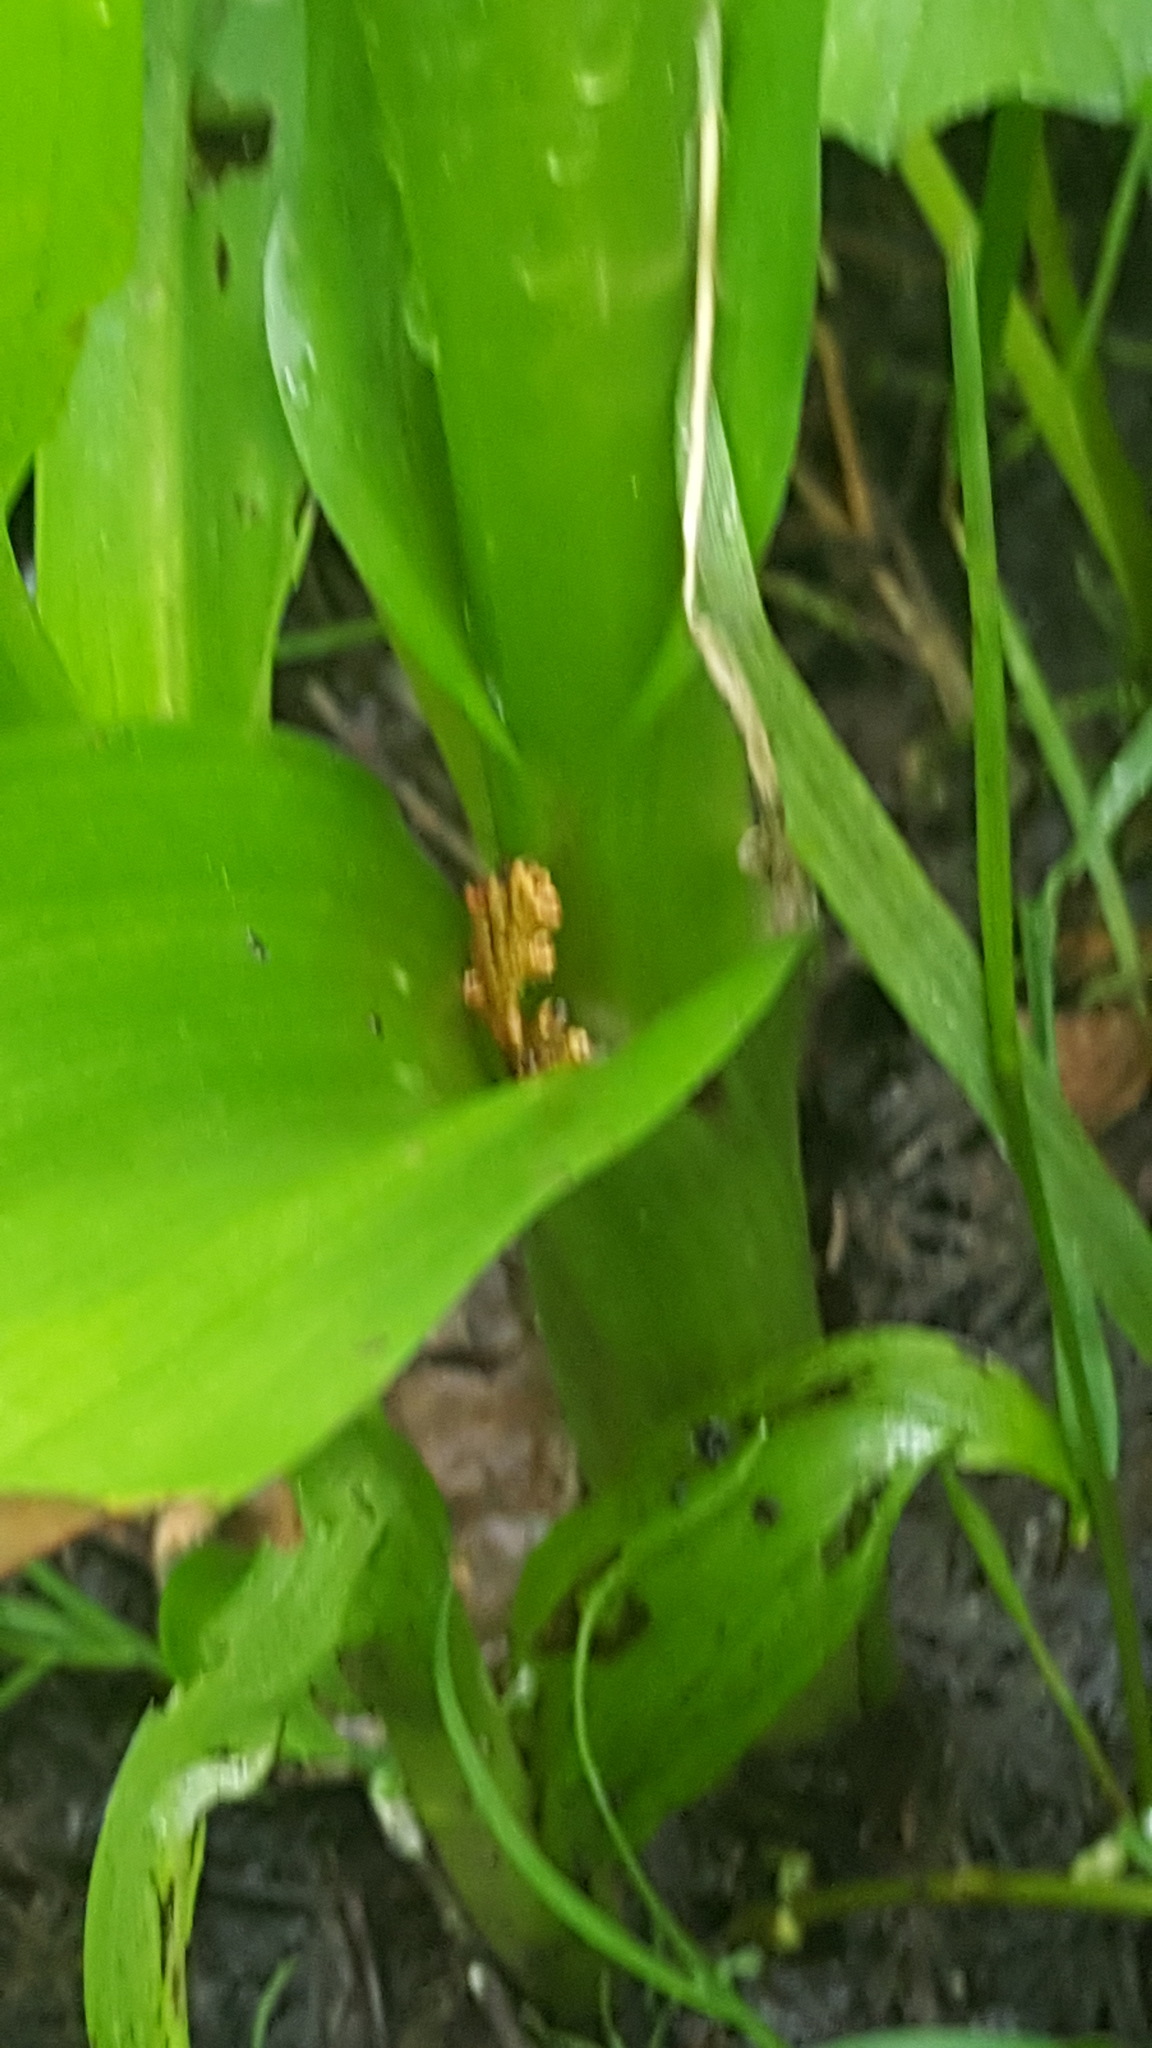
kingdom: Plantae
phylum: Tracheophyta
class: Liliopsida
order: Asparagales
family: Orchidaceae
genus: Platanthera
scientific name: Platanthera huronensis
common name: Fragrant green orchid
